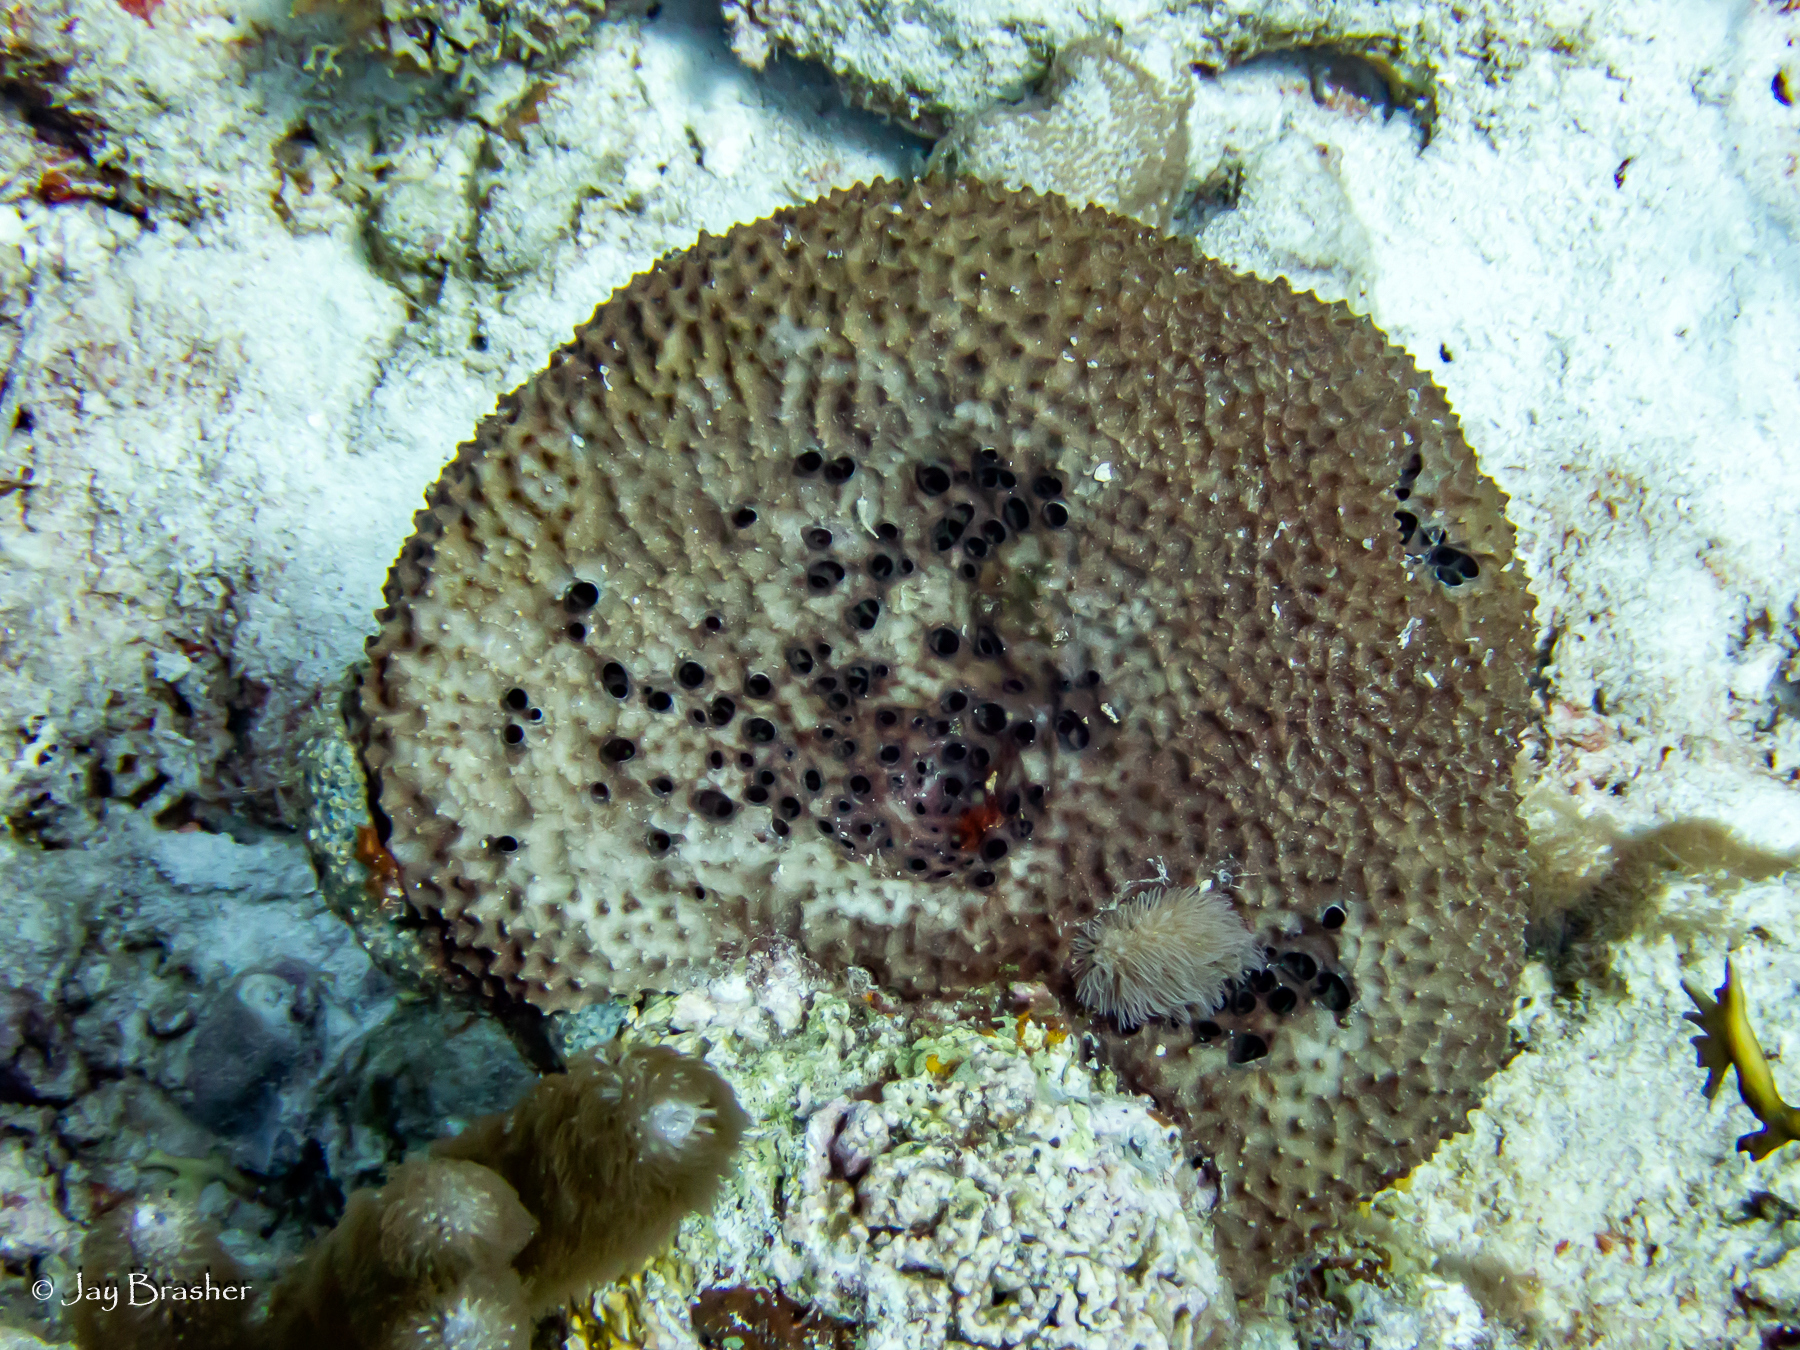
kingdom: Animalia
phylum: Porifera
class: Demospongiae
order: Dictyoceratida
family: Irciniidae
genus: Ircinia
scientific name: Ircinia felix
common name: Stinker sponge
